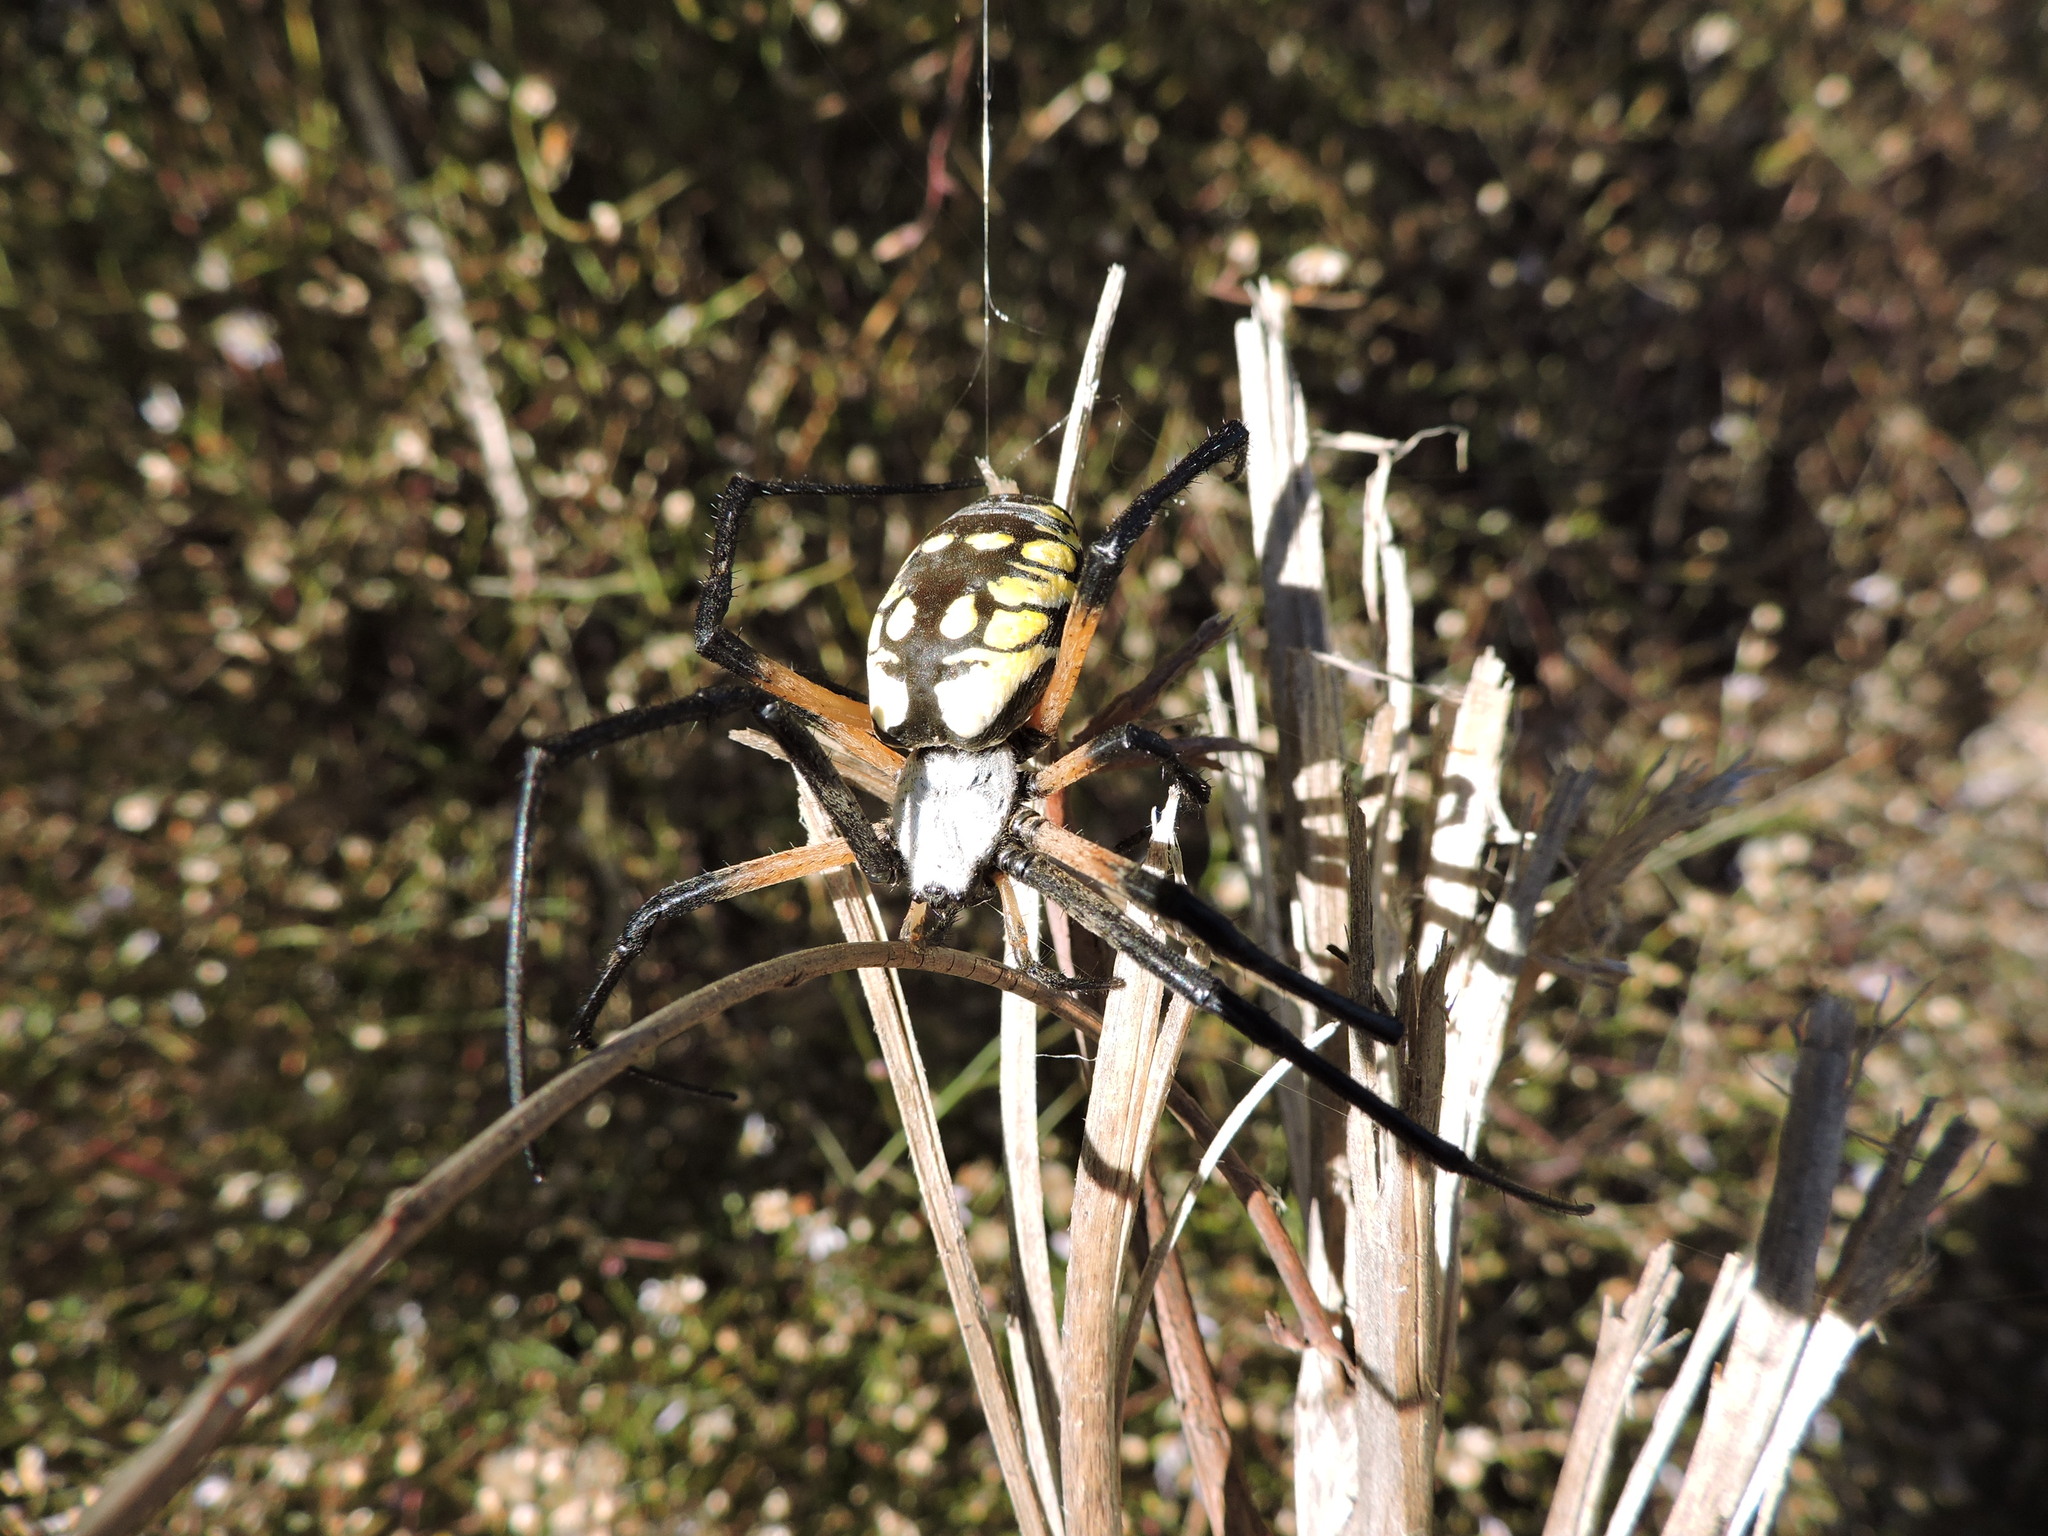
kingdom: Animalia
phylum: Arthropoda
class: Arachnida
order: Araneae
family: Araneidae
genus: Argiope
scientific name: Argiope aurantia
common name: Orb weavers
